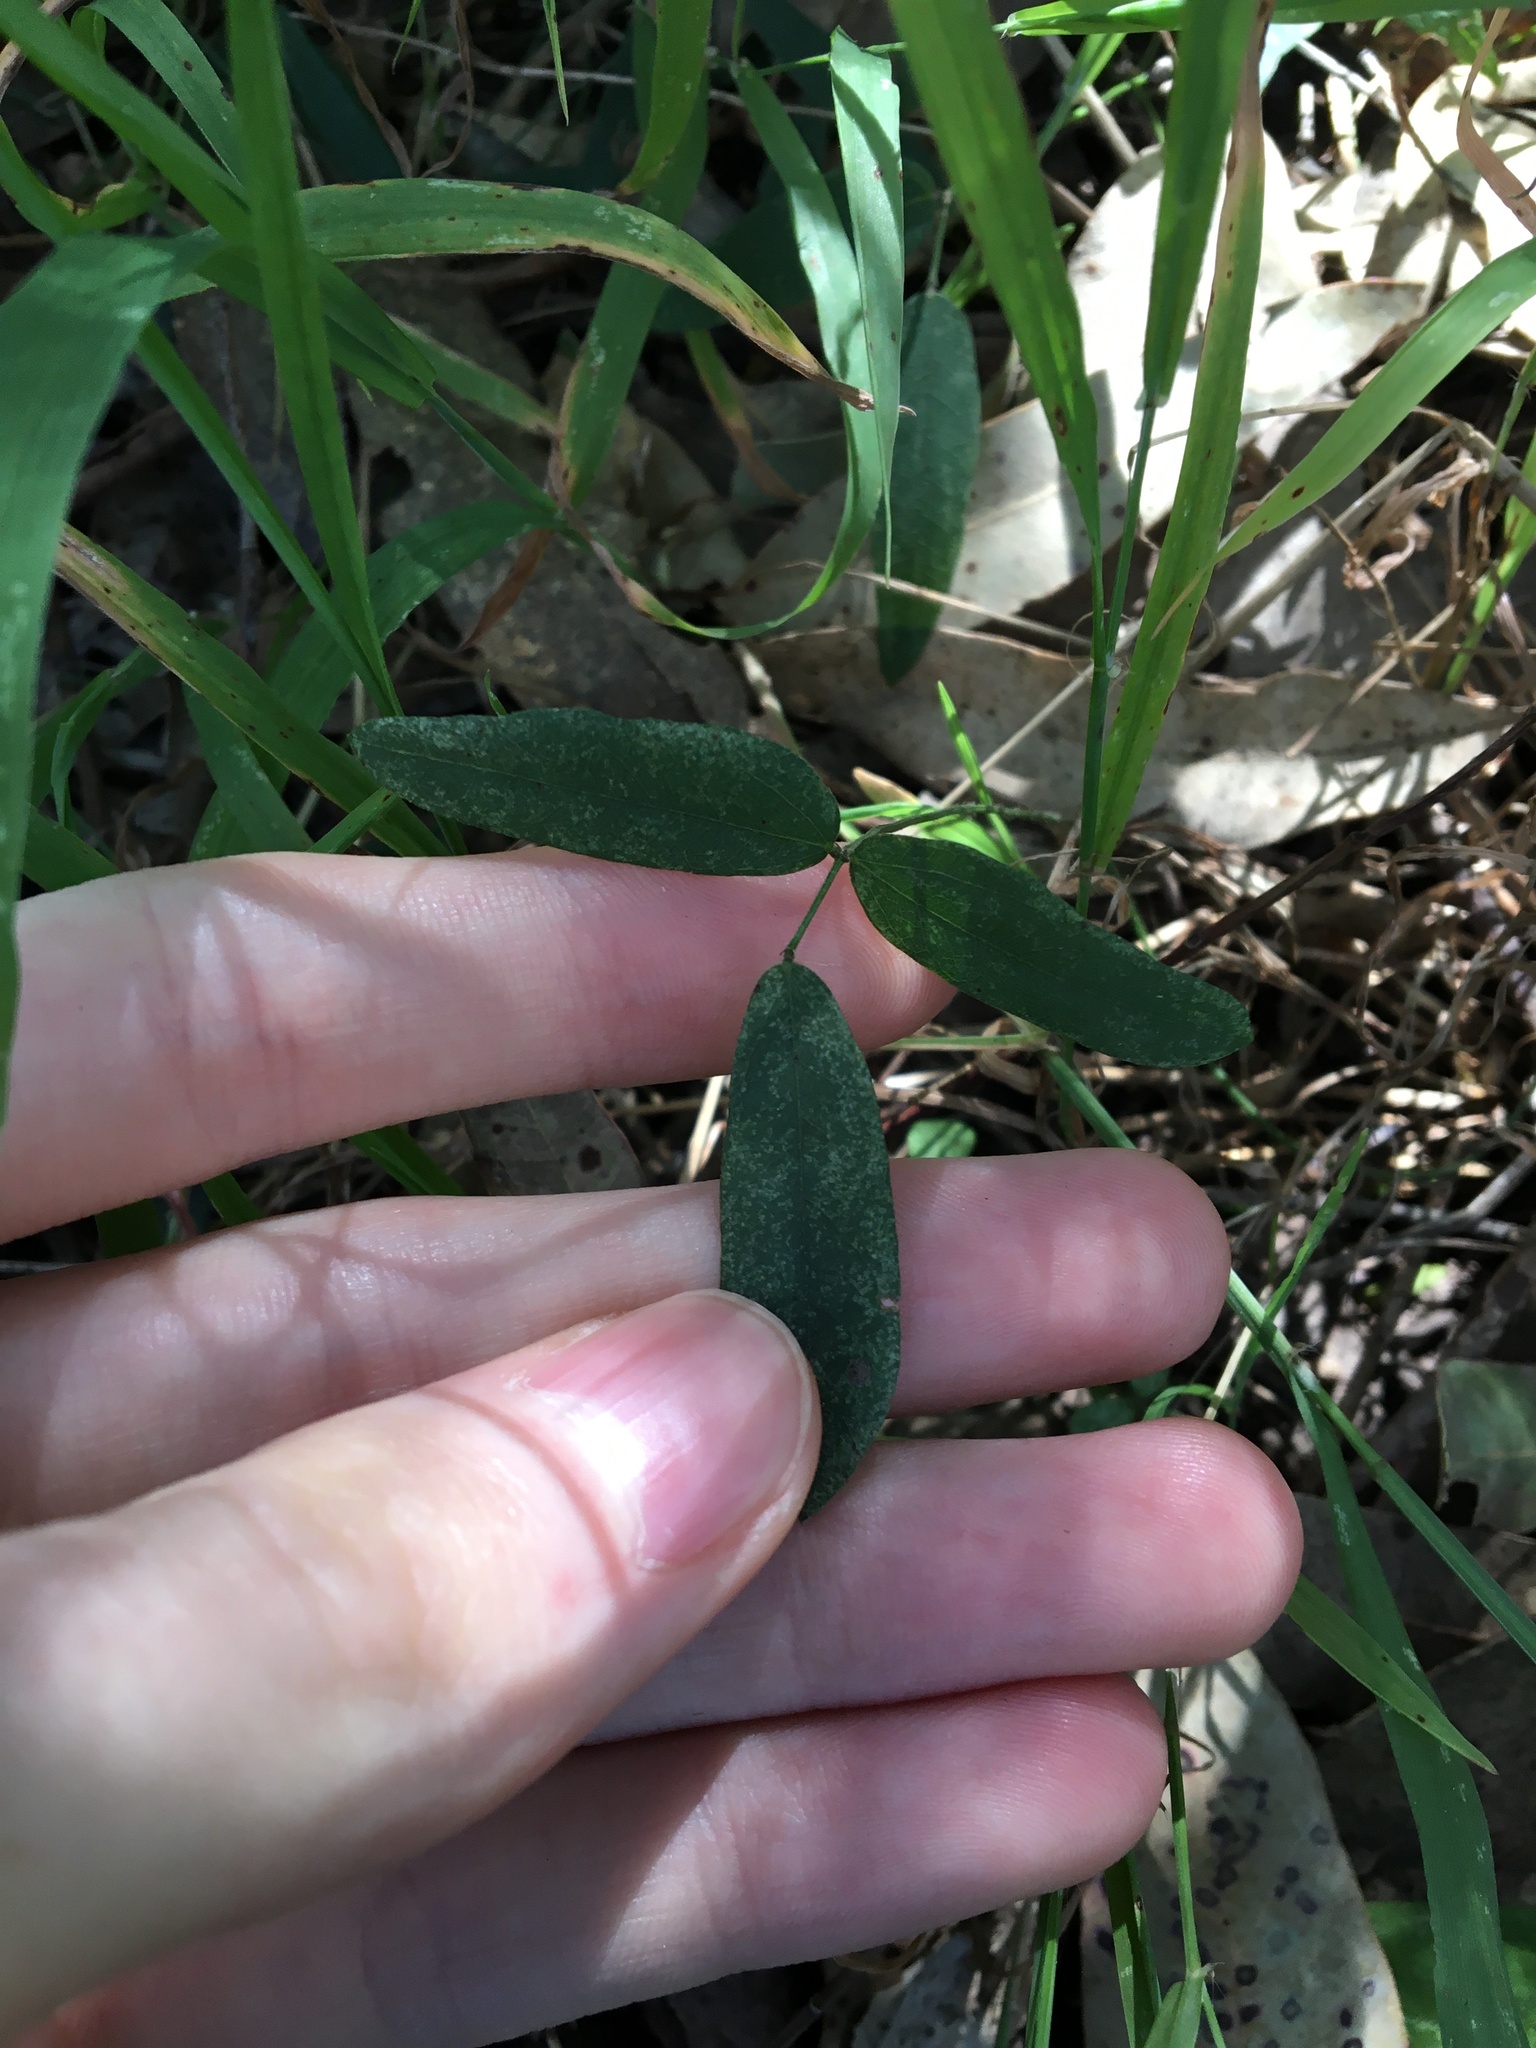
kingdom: Plantae
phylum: Tracheophyta
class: Magnoliopsida
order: Fabales
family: Fabaceae
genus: Glycine
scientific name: Glycine tabacina
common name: Pea glycine
